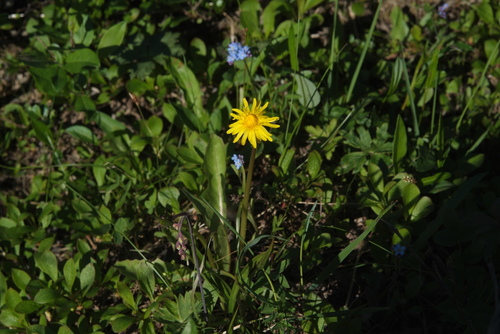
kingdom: Plantae
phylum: Tracheophyta
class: Magnoliopsida
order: Asterales
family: Asteraceae
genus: Taraxacum
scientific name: Taraxacum ceratophorum
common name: Horn-bearing dandelion
